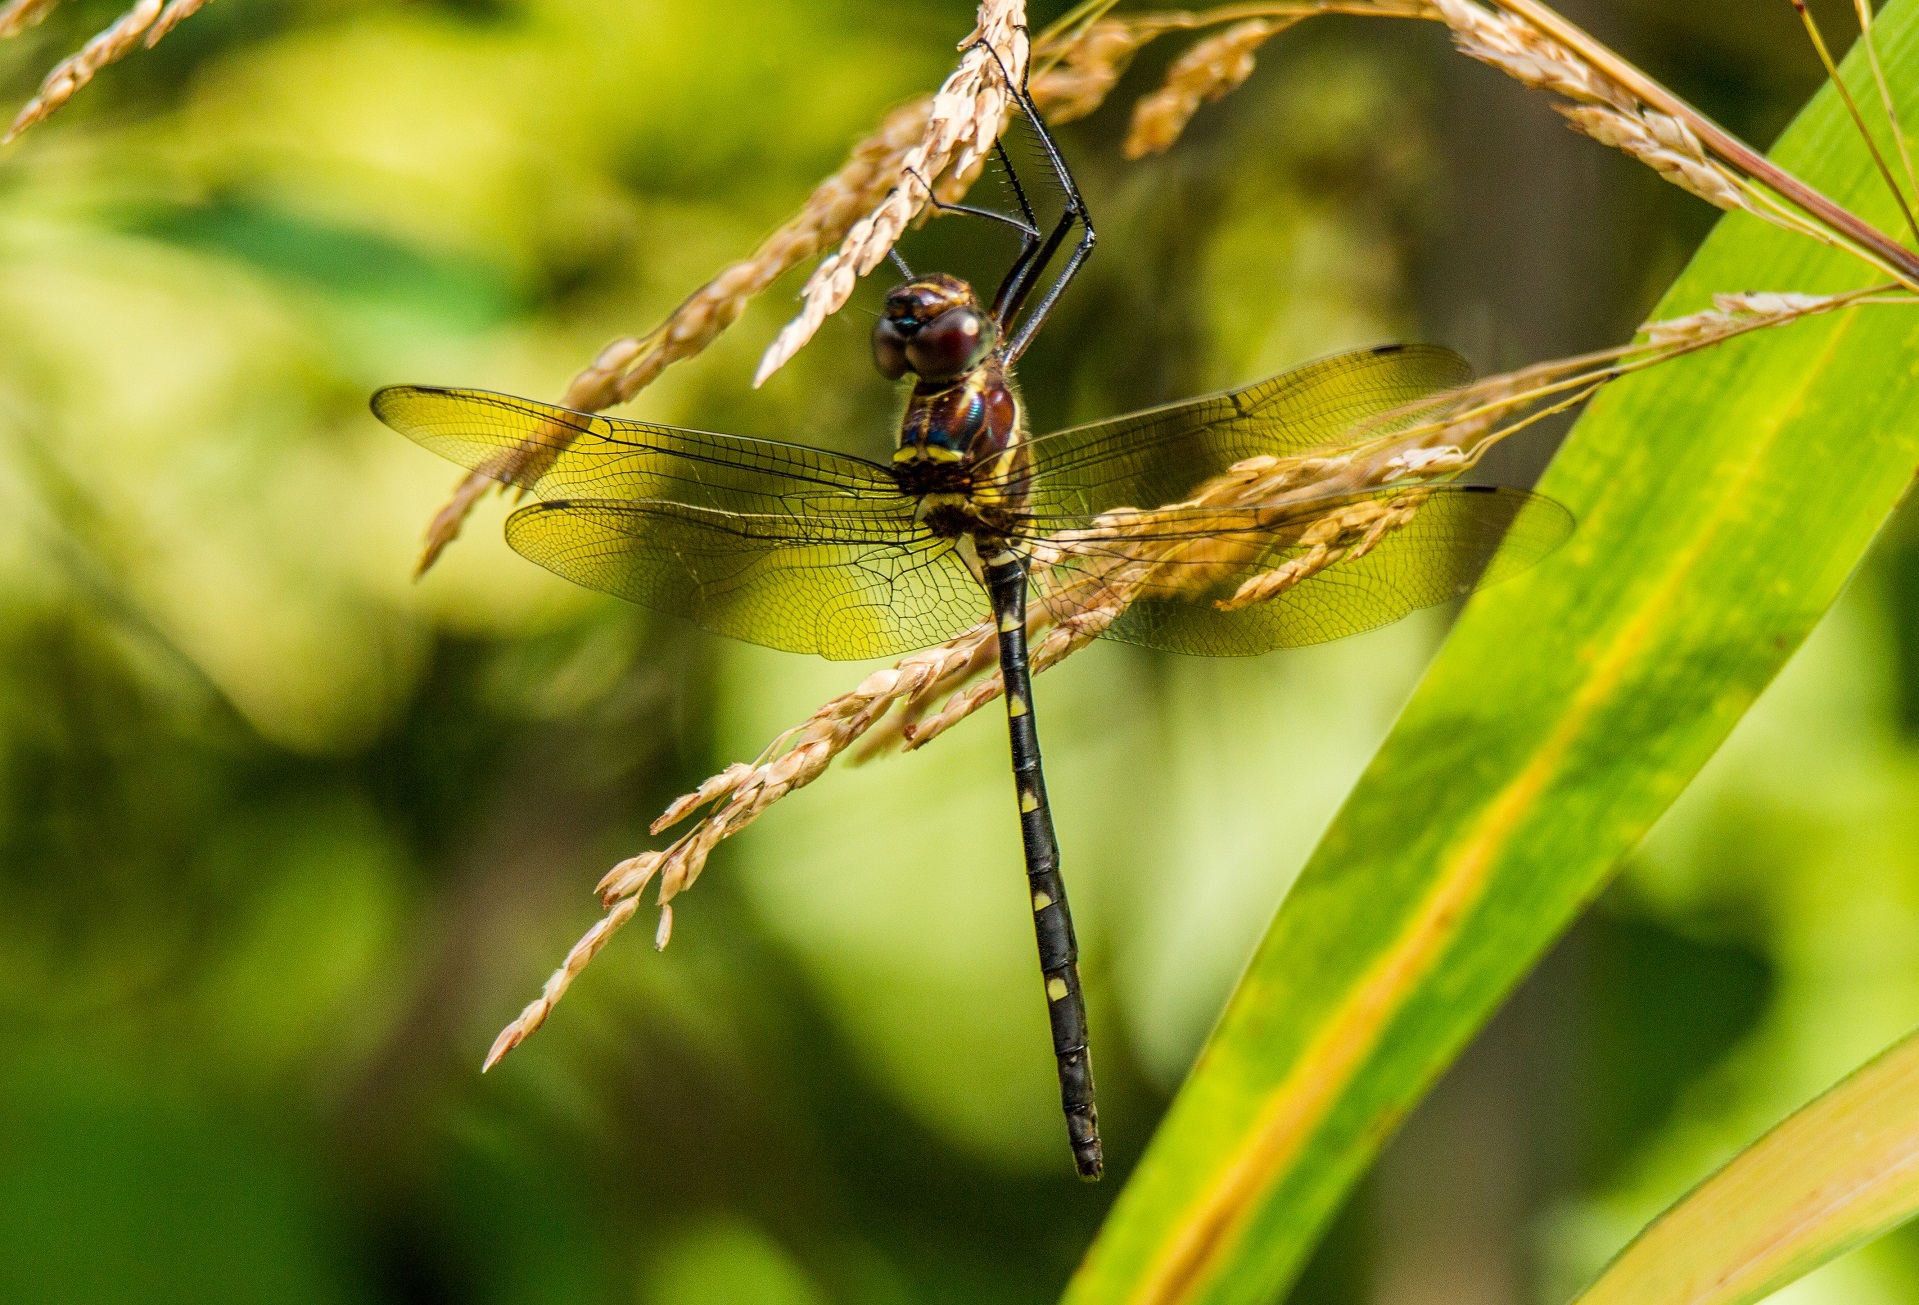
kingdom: Animalia
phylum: Arthropoda
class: Insecta
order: Odonata
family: Macromiidae
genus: Macromia
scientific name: Macromia taeniolata
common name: Royal river cruiser
